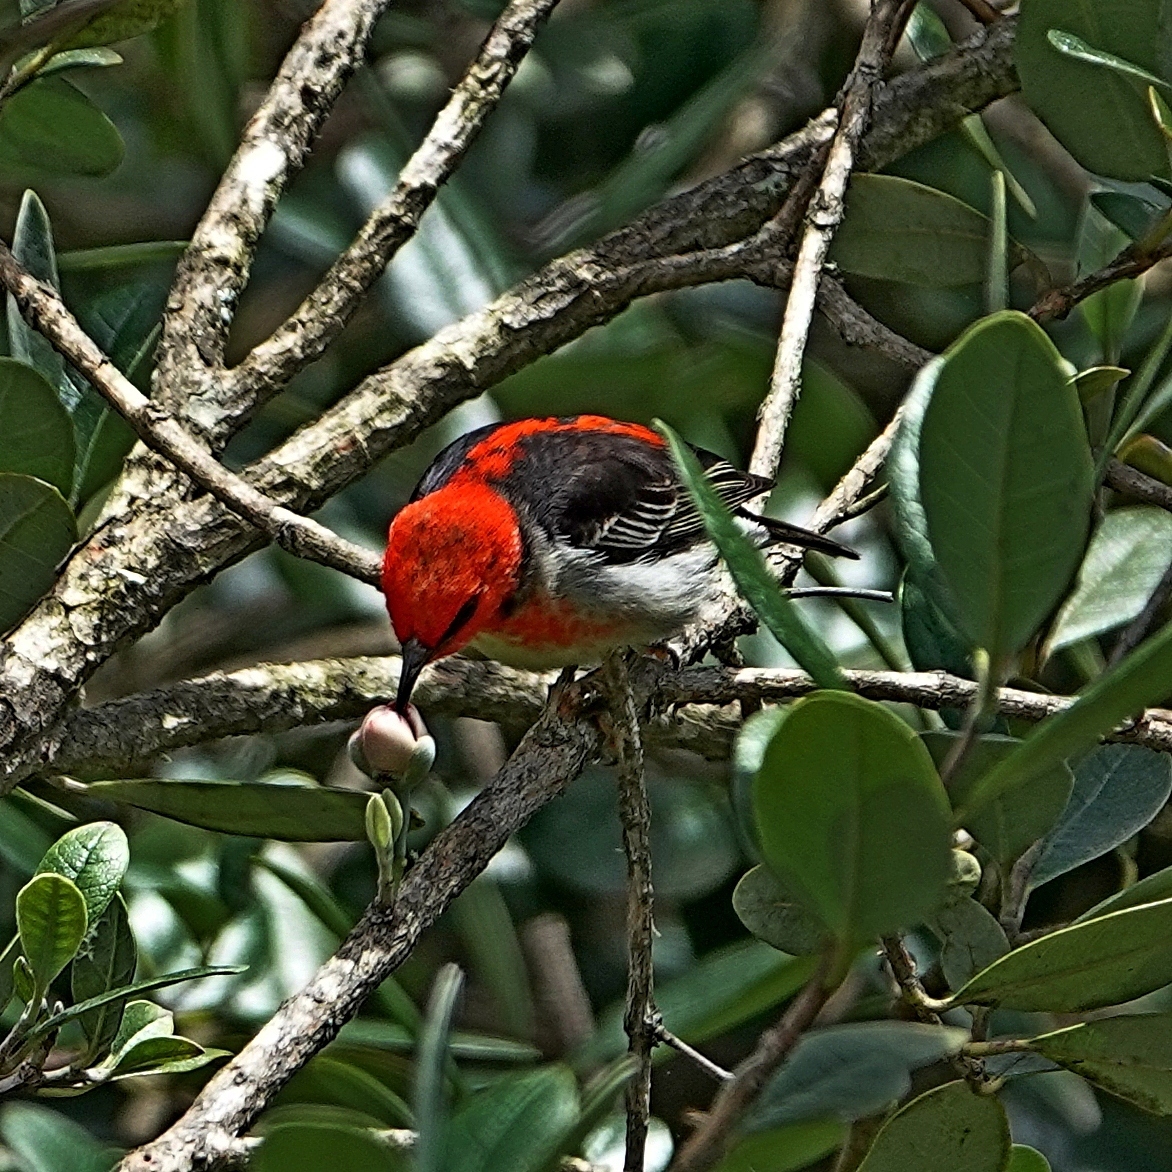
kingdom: Animalia
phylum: Chordata
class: Aves
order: Passeriformes
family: Meliphagidae
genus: Myzomela
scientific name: Myzomela sanguinolenta
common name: Scarlet myzomela
